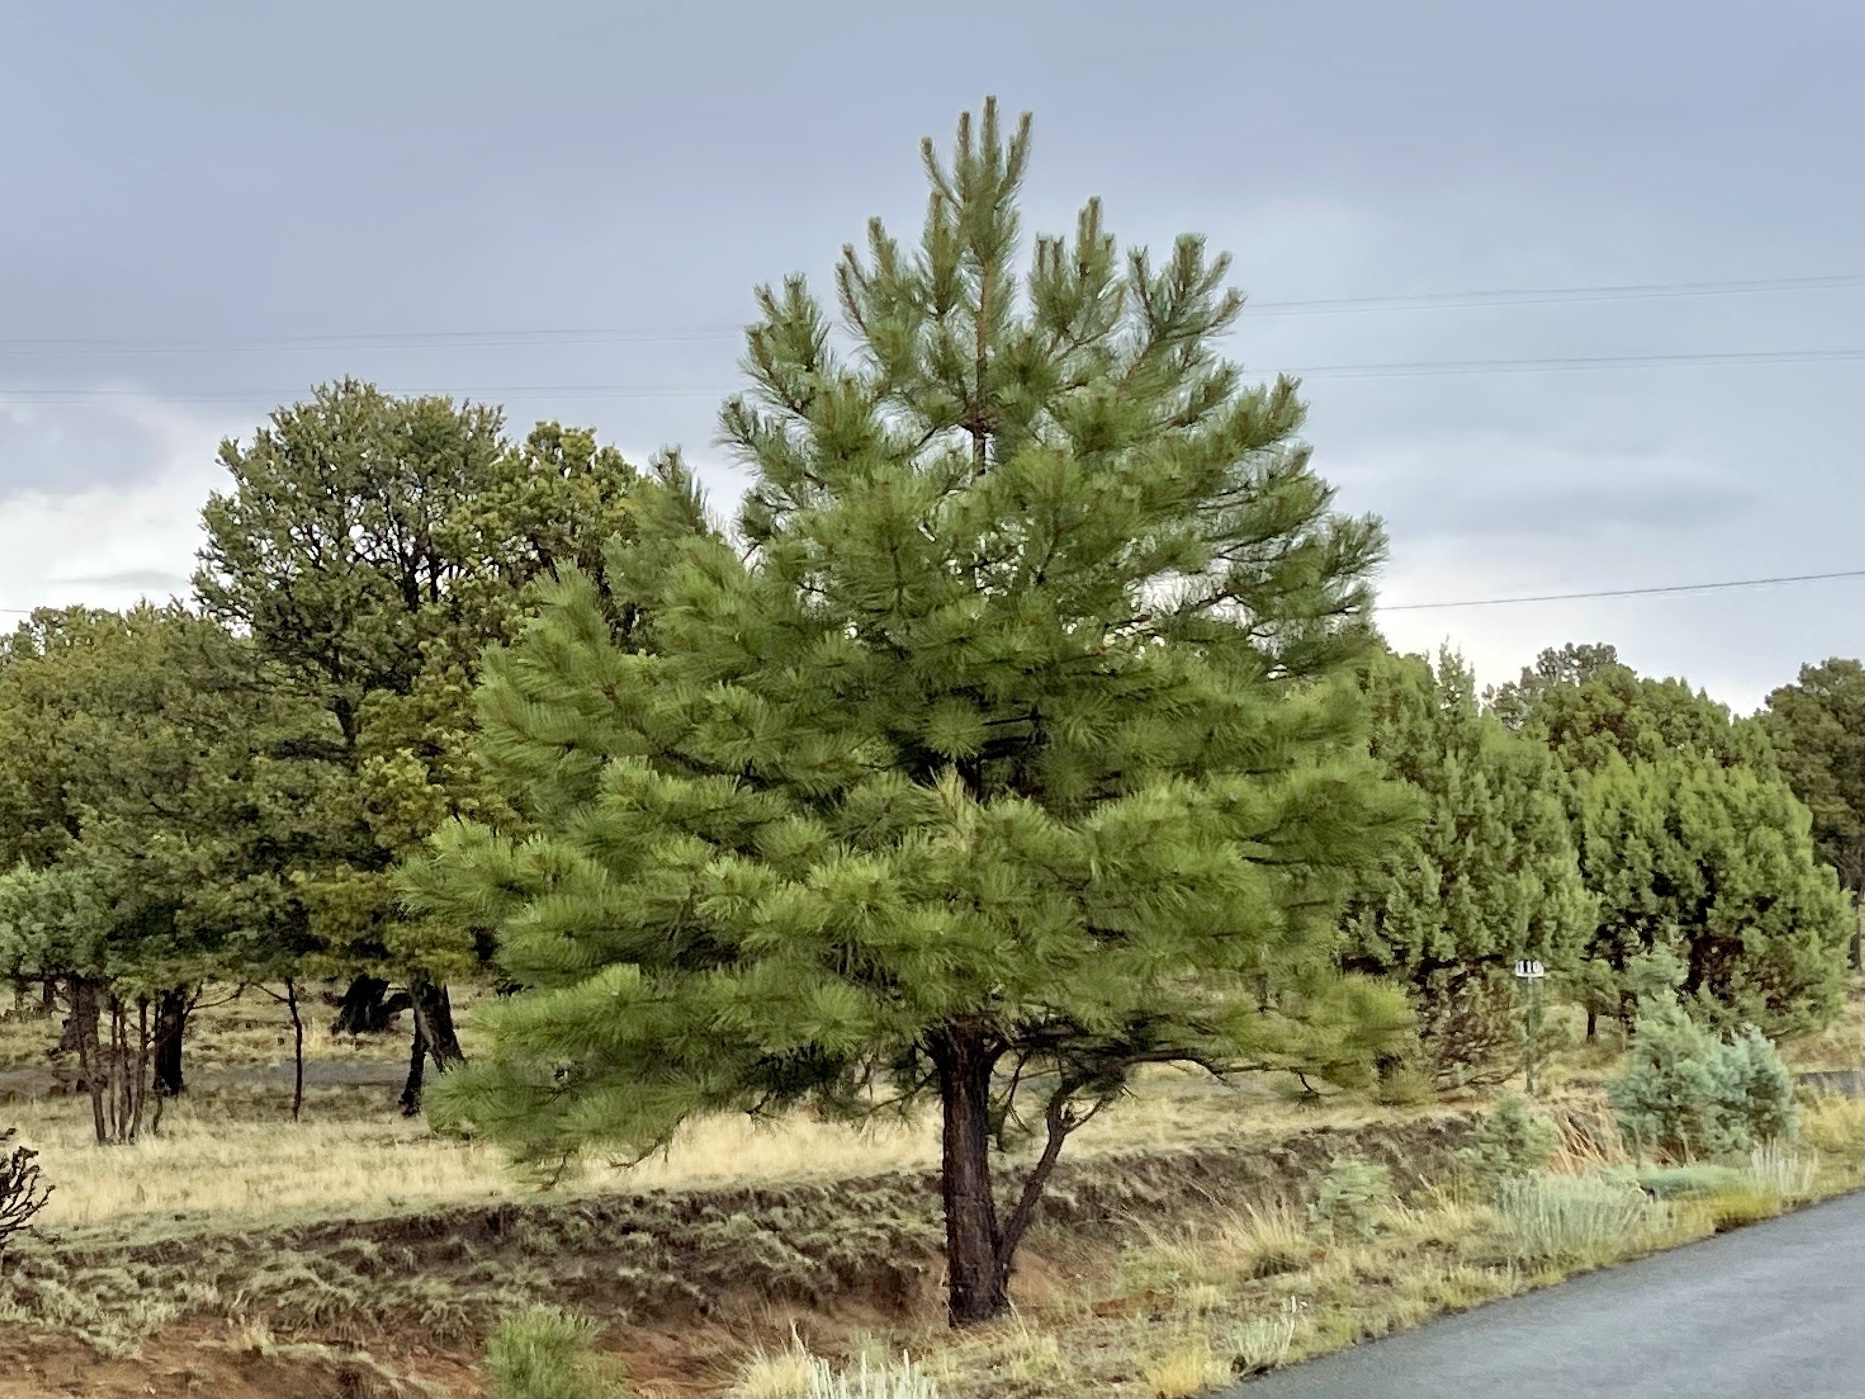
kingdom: Plantae
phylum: Tracheophyta
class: Pinopsida
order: Pinales
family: Pinaceae
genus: Pinus
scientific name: Pinus ponderosa
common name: Western yellow-pine
